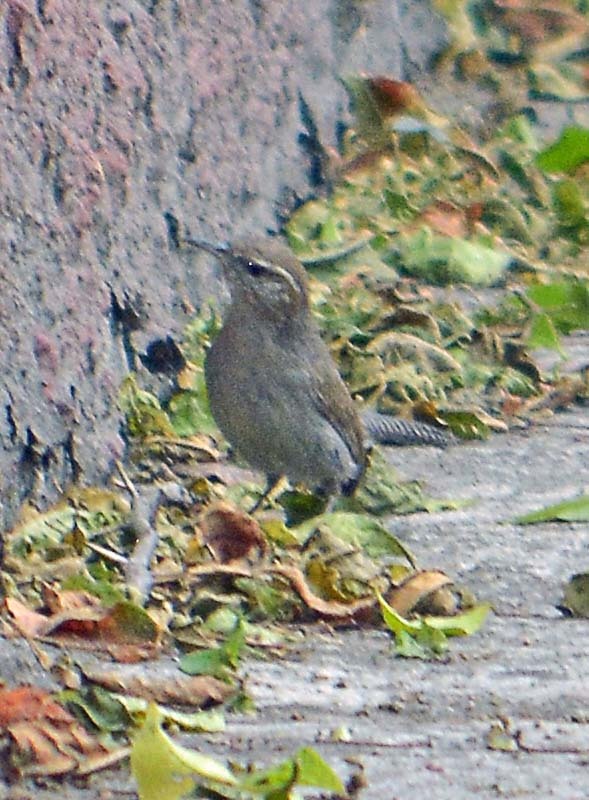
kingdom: Animalia
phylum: Chordata
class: Aves
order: Passeriformes
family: Troglodytidae
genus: Thryomanes
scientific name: Thryomanes bewickii
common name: Bewick's wren
